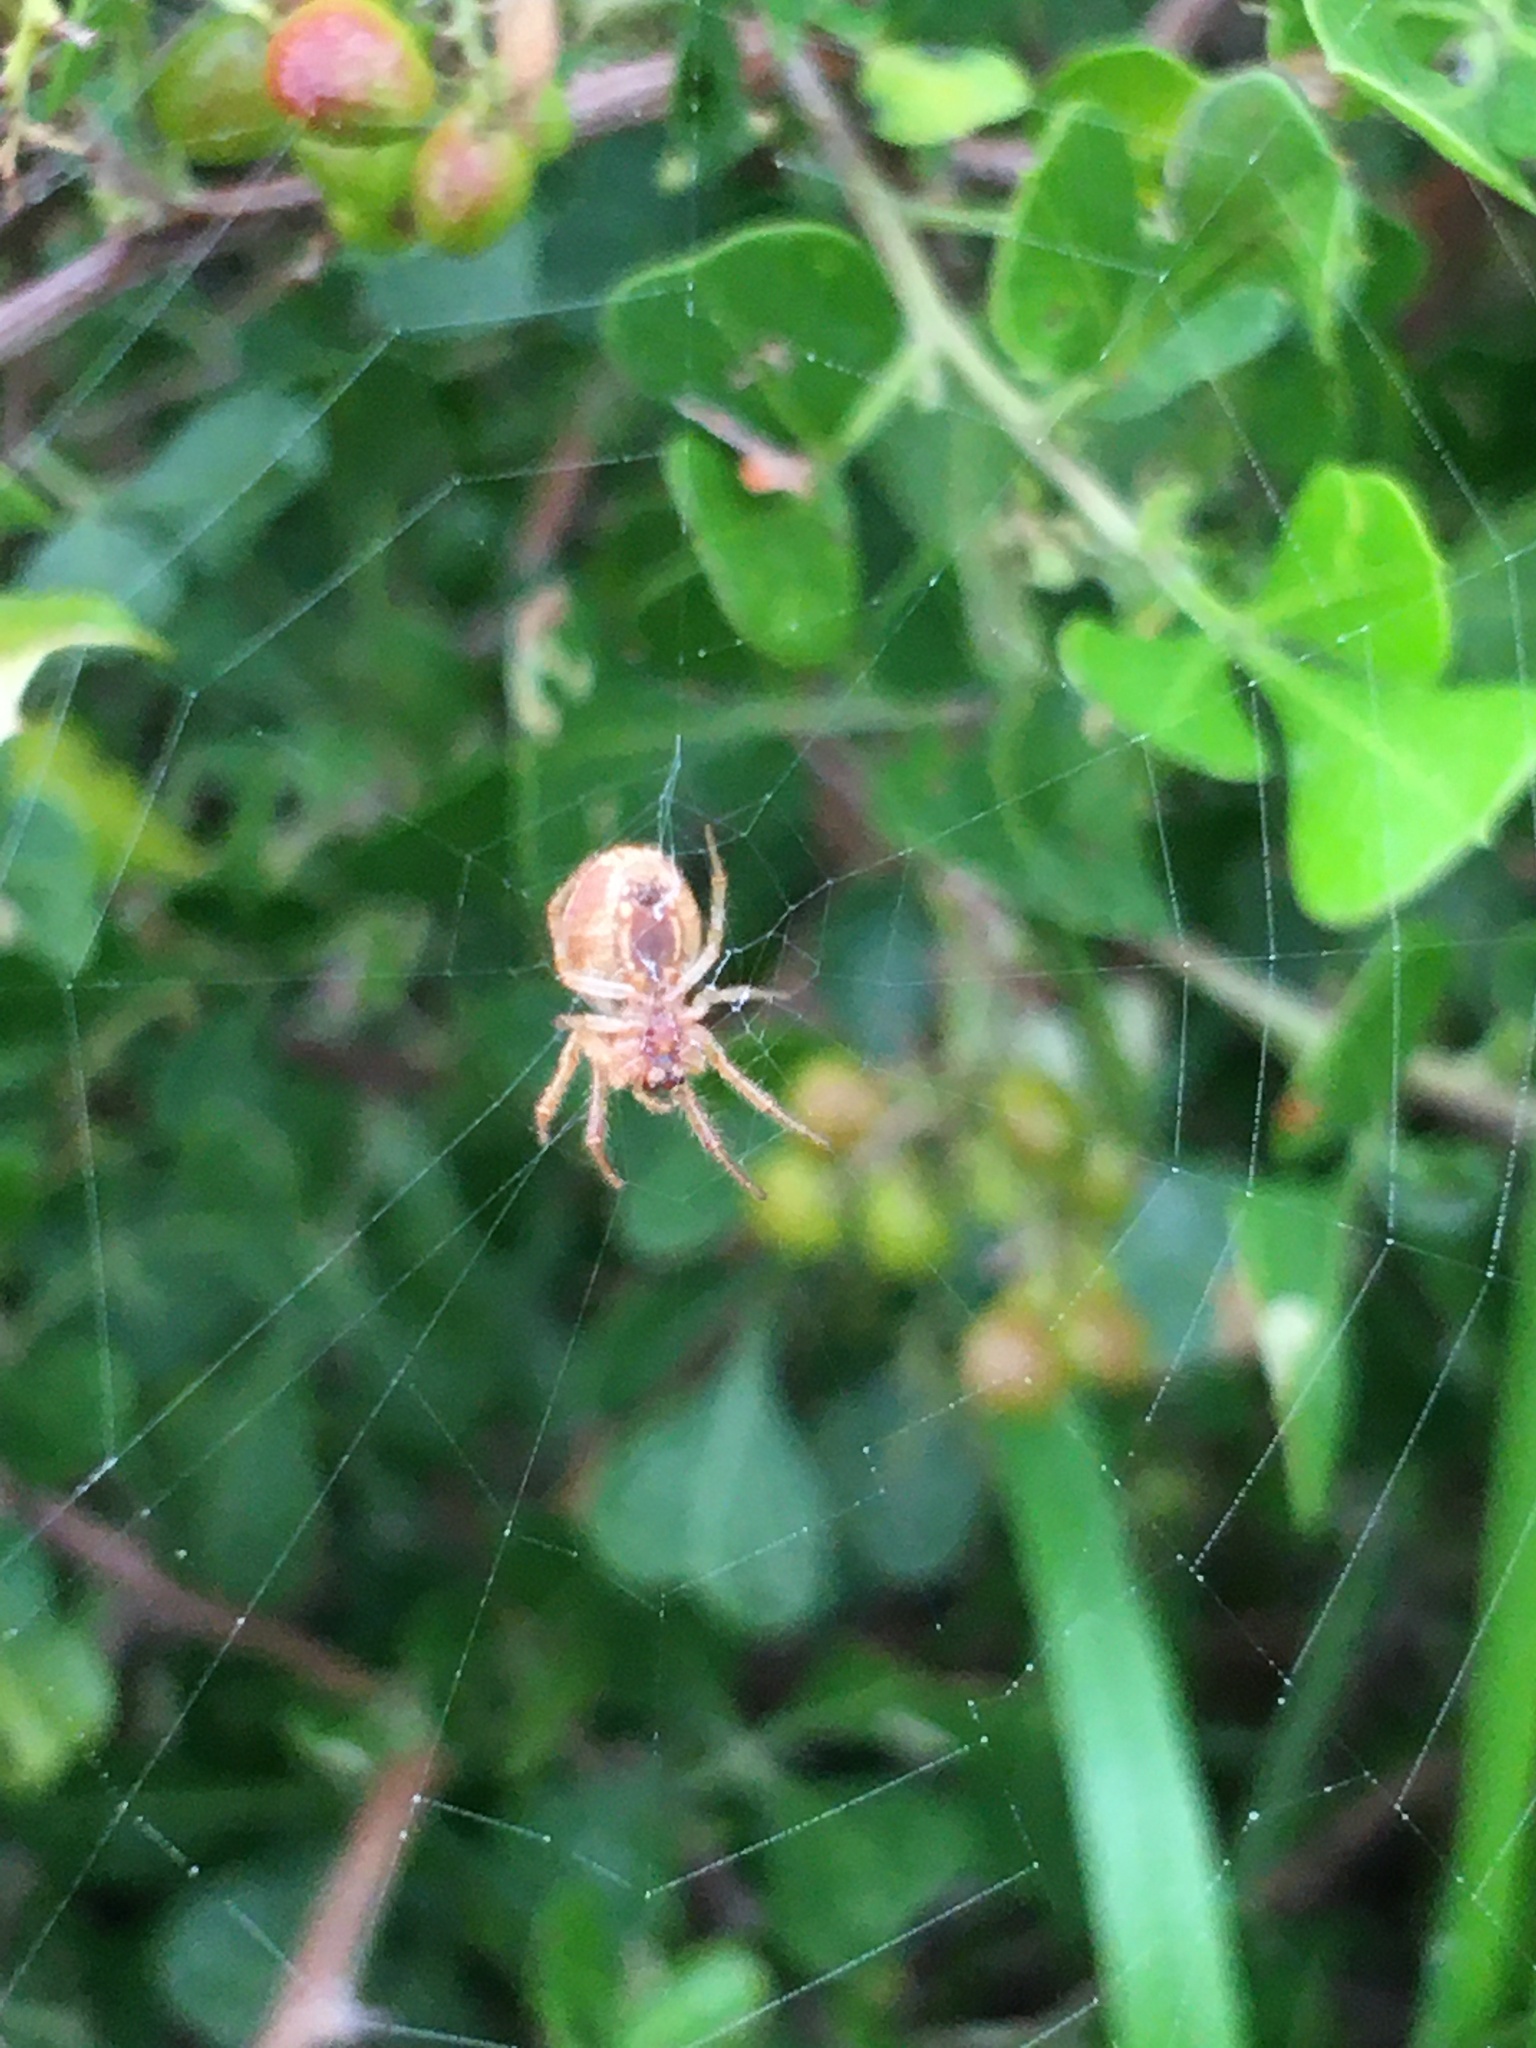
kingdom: Animalia
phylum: Arthropoda
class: Arachnida
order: Araneae
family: Araneidae
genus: Neoscona
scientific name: Neoscona subfusca
